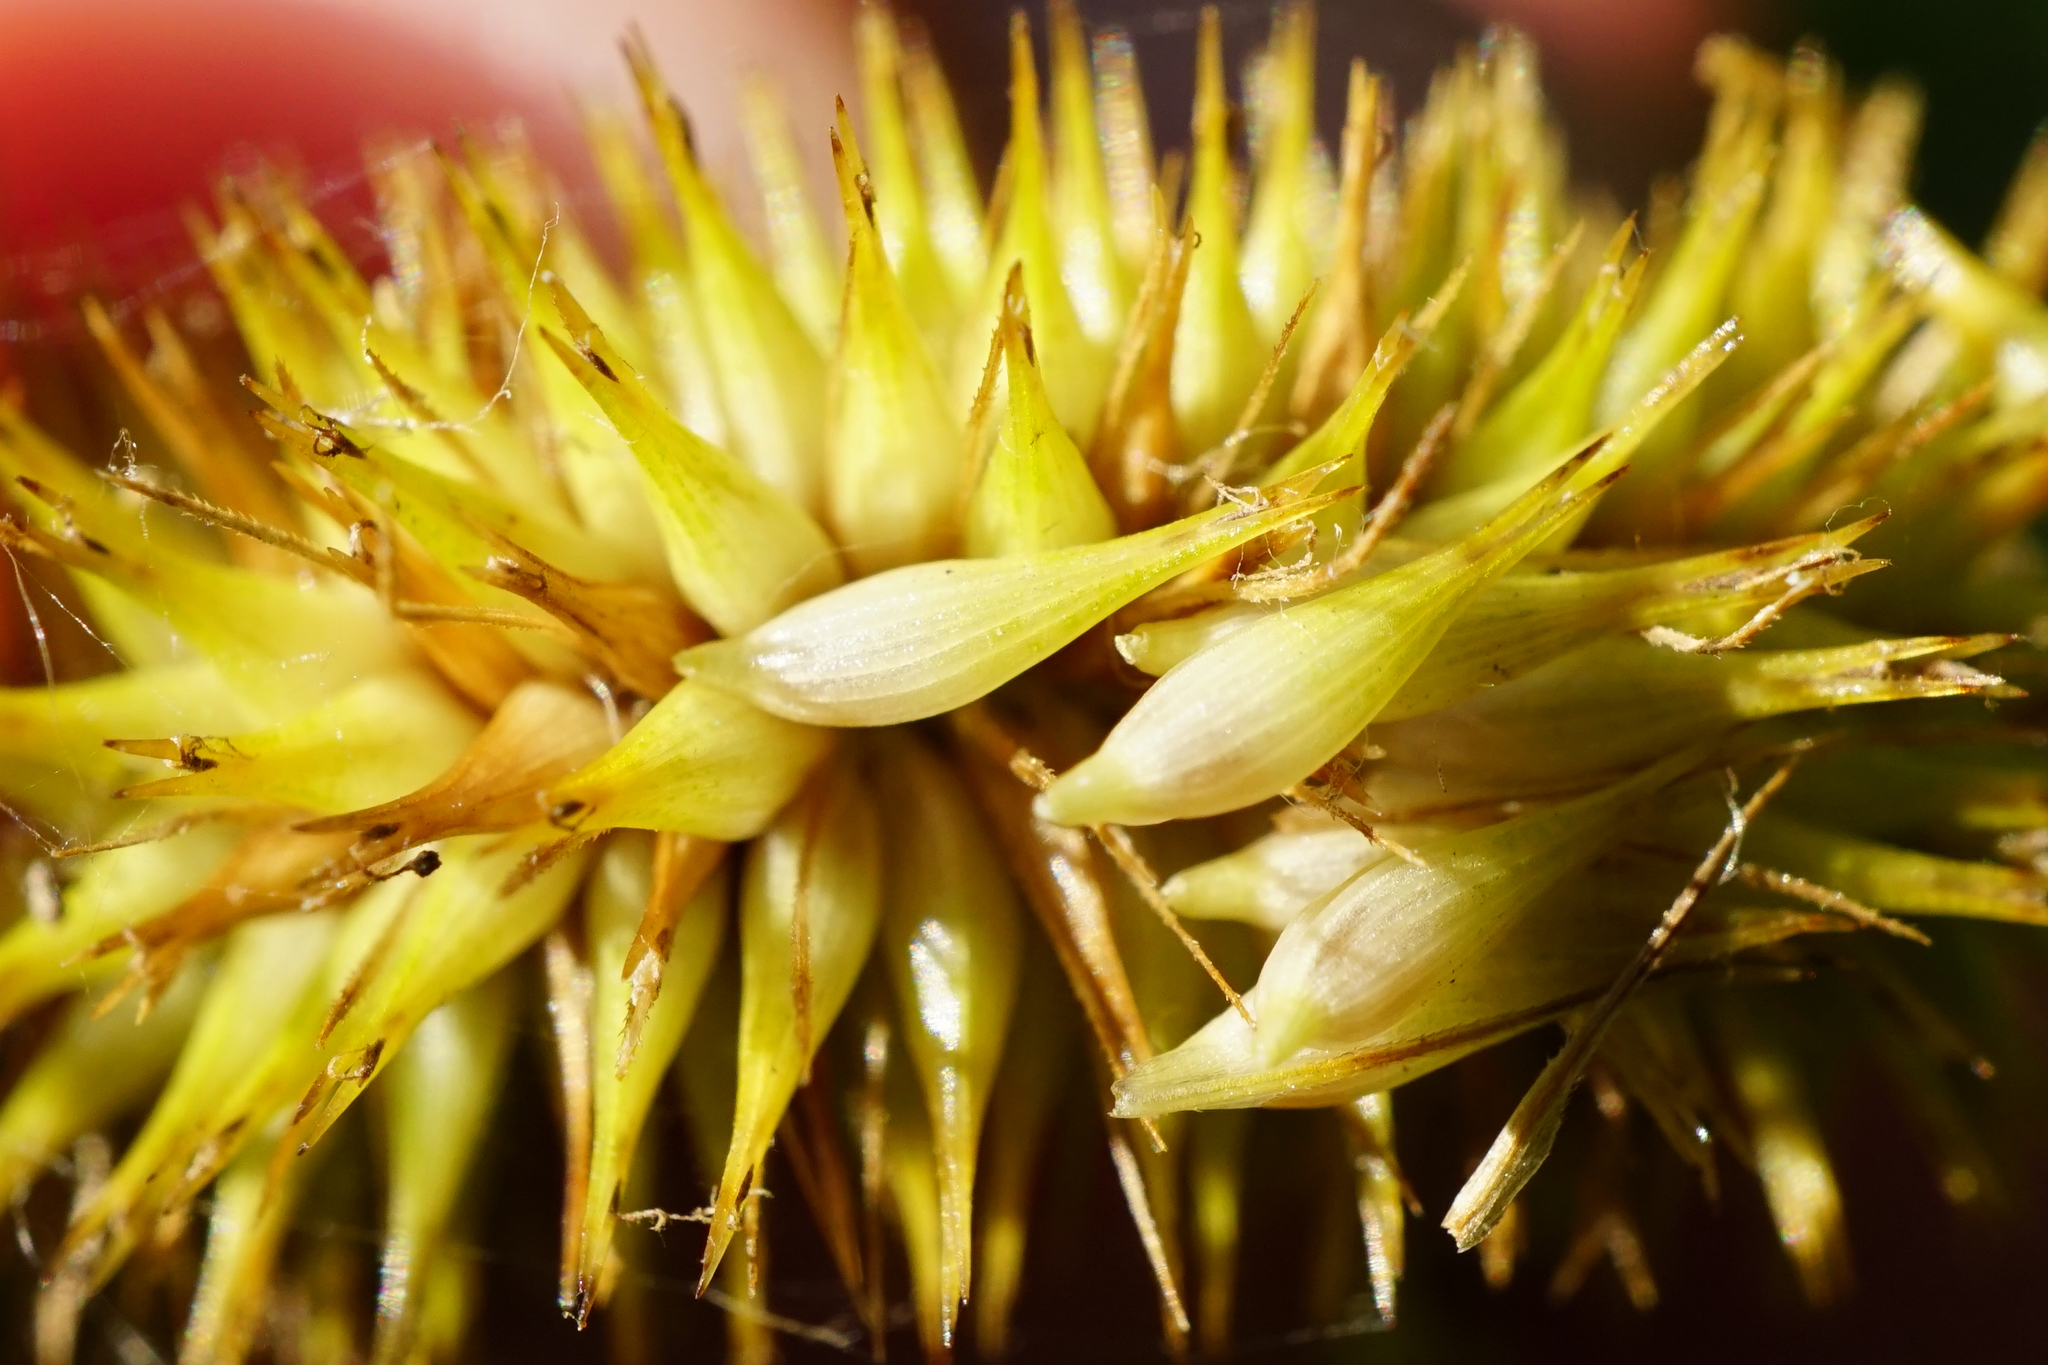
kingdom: Plantae
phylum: Tracheophyta
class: Liliopsida
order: Poales
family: Cyperaceae
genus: Carex
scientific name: Carex pseudocyperus
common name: Cyperus sedge
